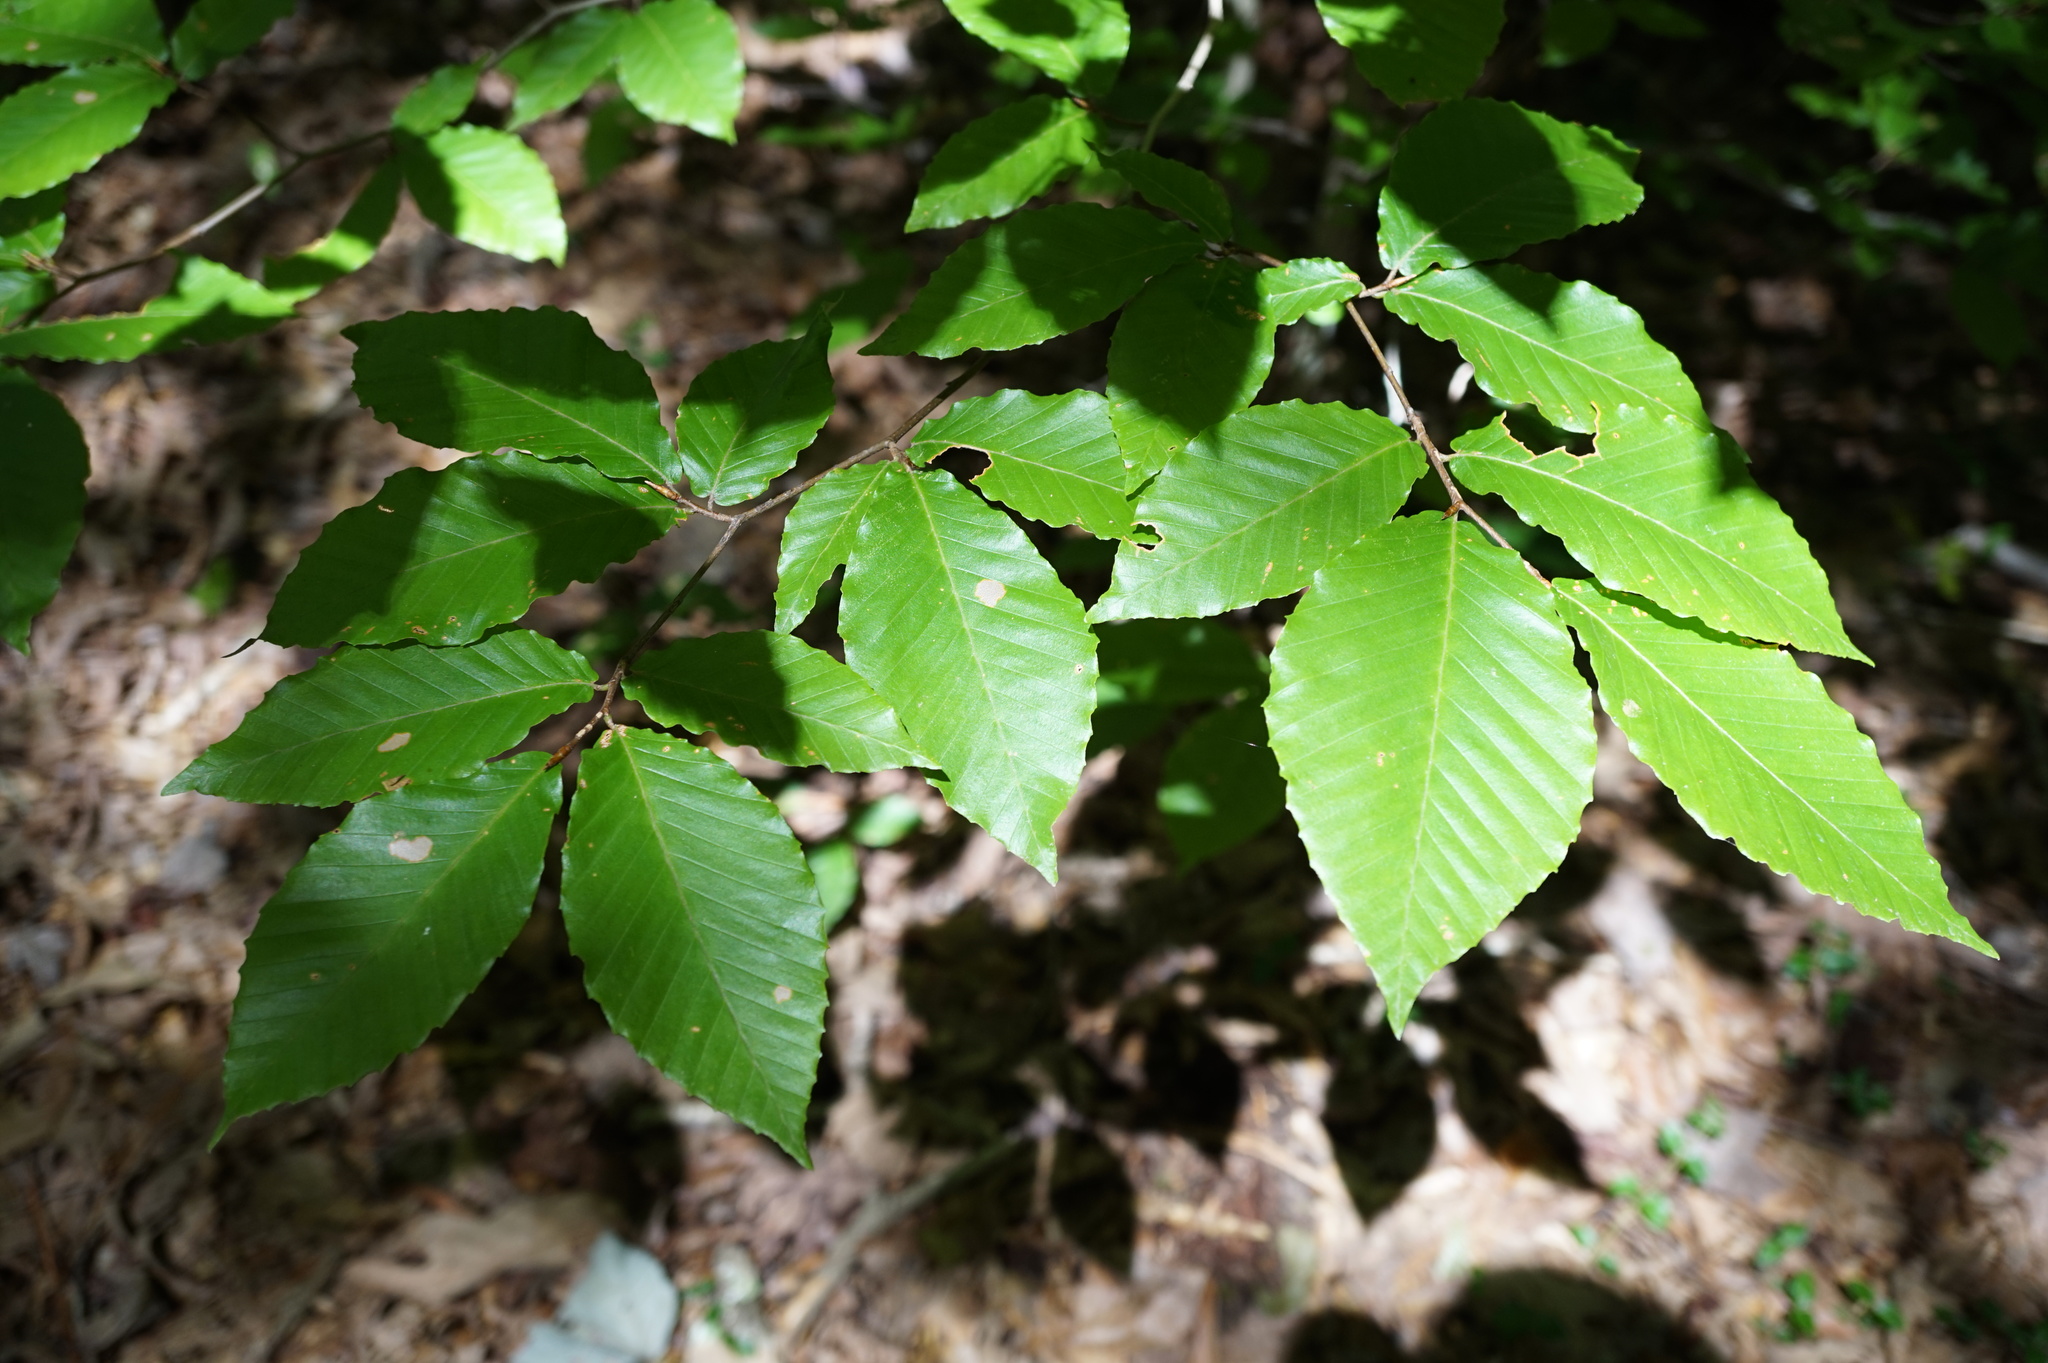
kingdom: Plantae
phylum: Tracheophyta
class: Magnoliopsida
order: Fagales
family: Fagaceae
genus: Fagus
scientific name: Fagus grandifolia
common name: American beech
